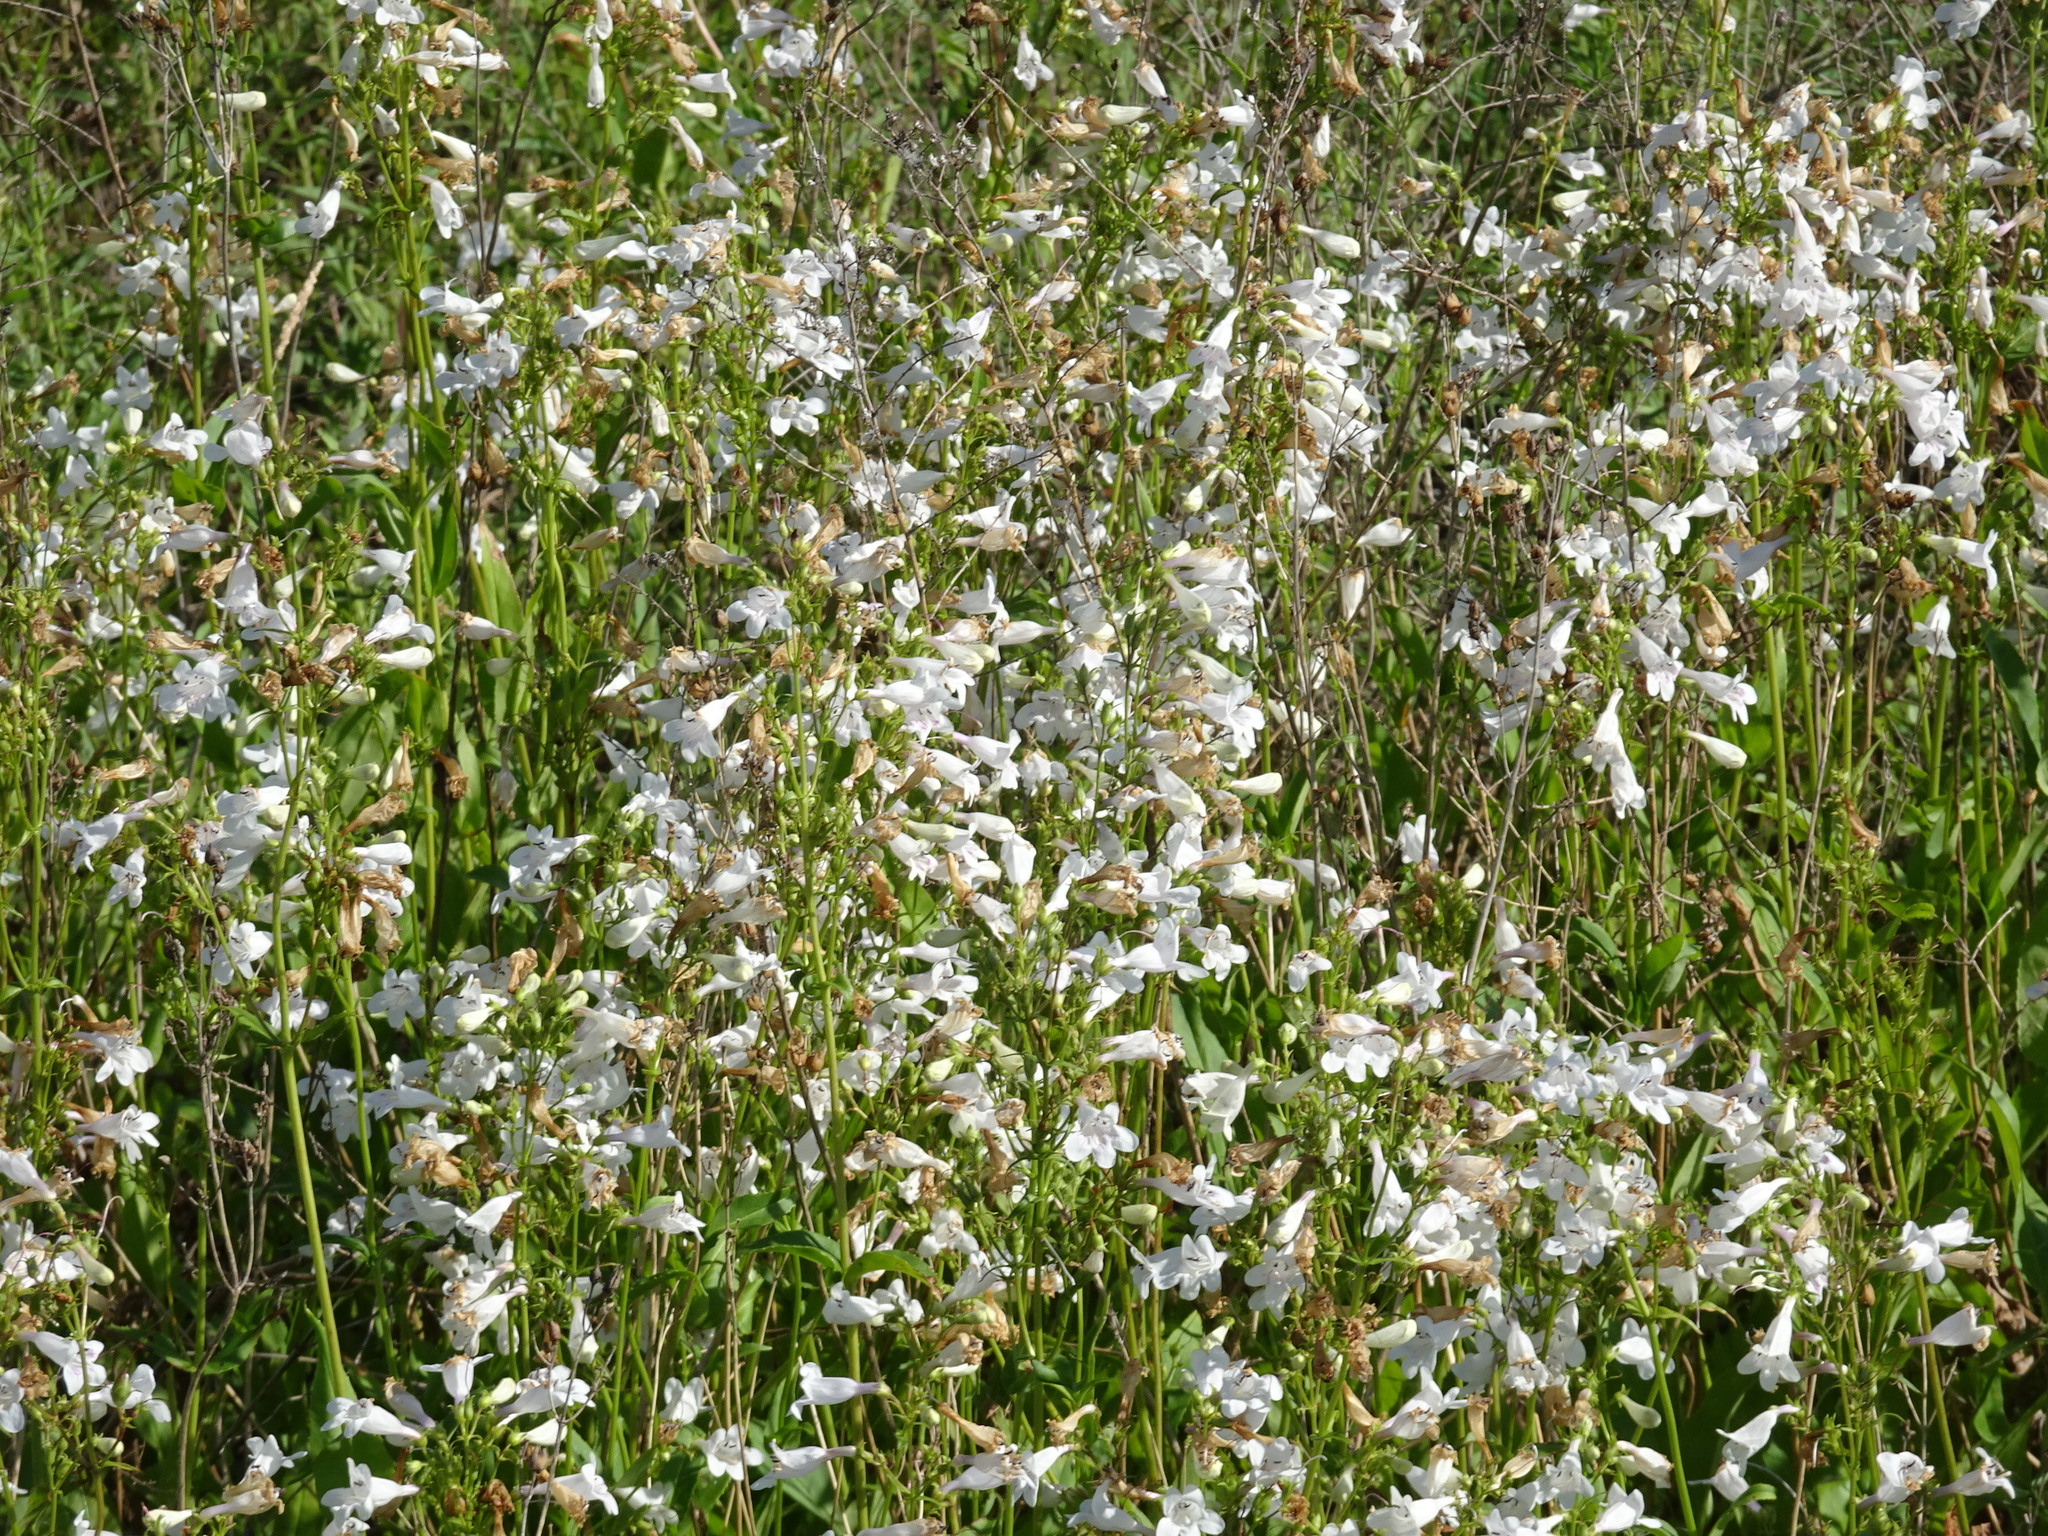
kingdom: Plantae
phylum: Tracheophyta
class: Magnoliopsida
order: Lamiales
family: Plantaginaceae
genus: Penstemon
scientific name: Penstemon digitalis
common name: Foxglove beardtongue
